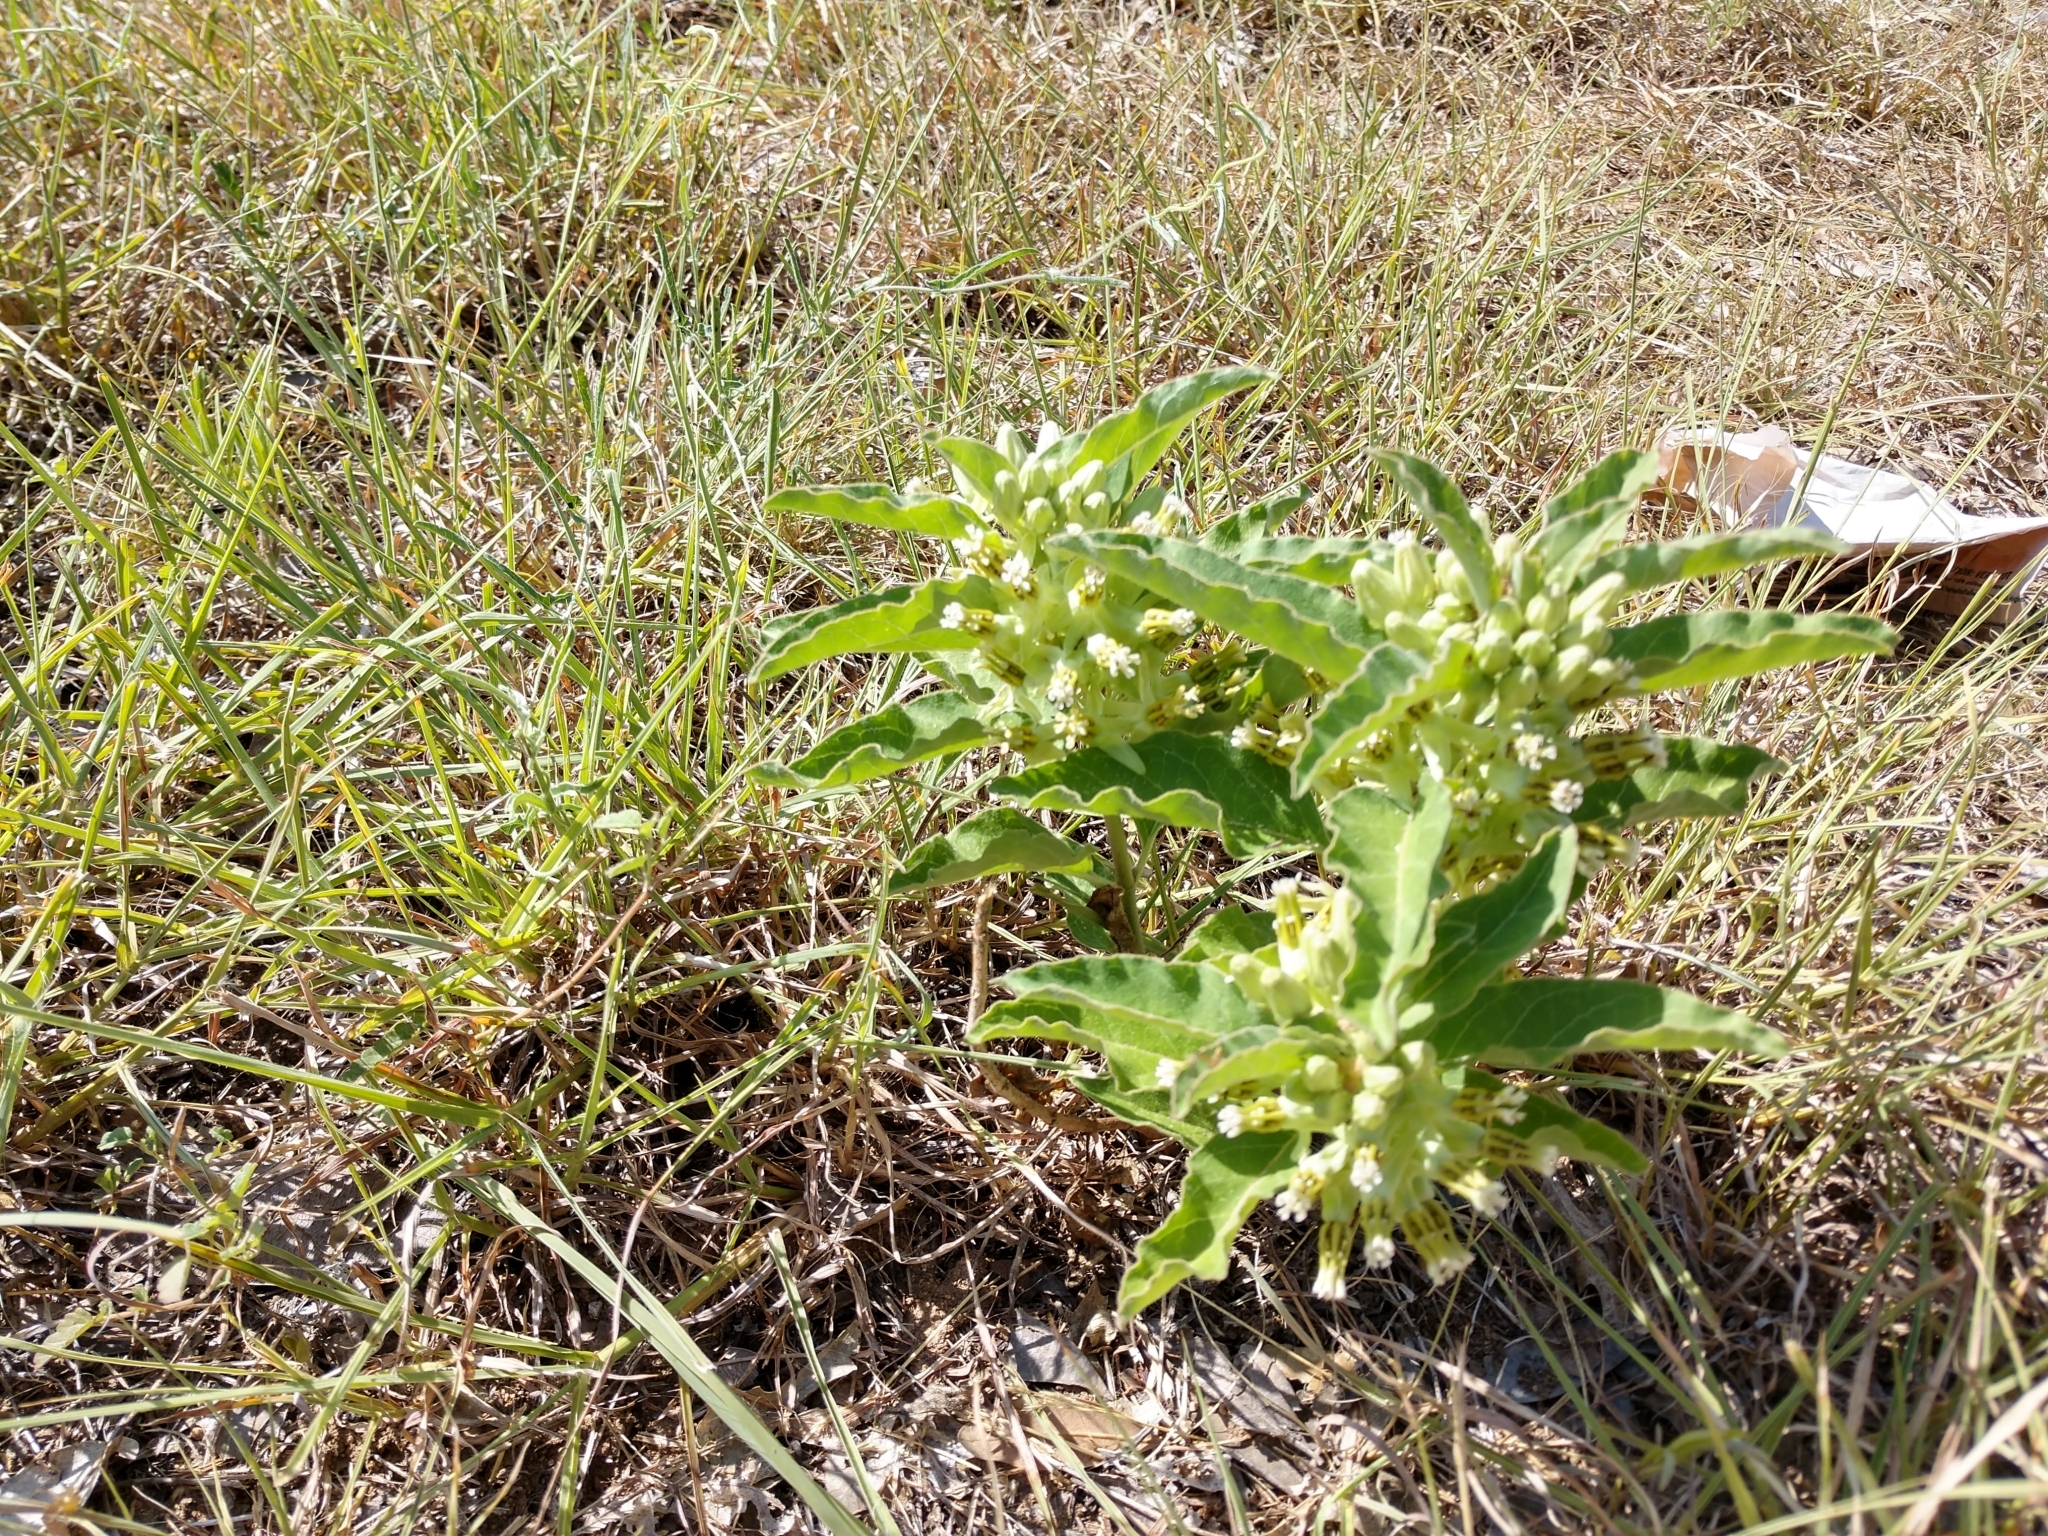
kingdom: Plantae
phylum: Tracheophyta
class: Magnoliopsida
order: Gentianales
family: Apocynaceae
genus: Asclepias
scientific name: Asclepias oenotheroides
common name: Zizotes milkweed
